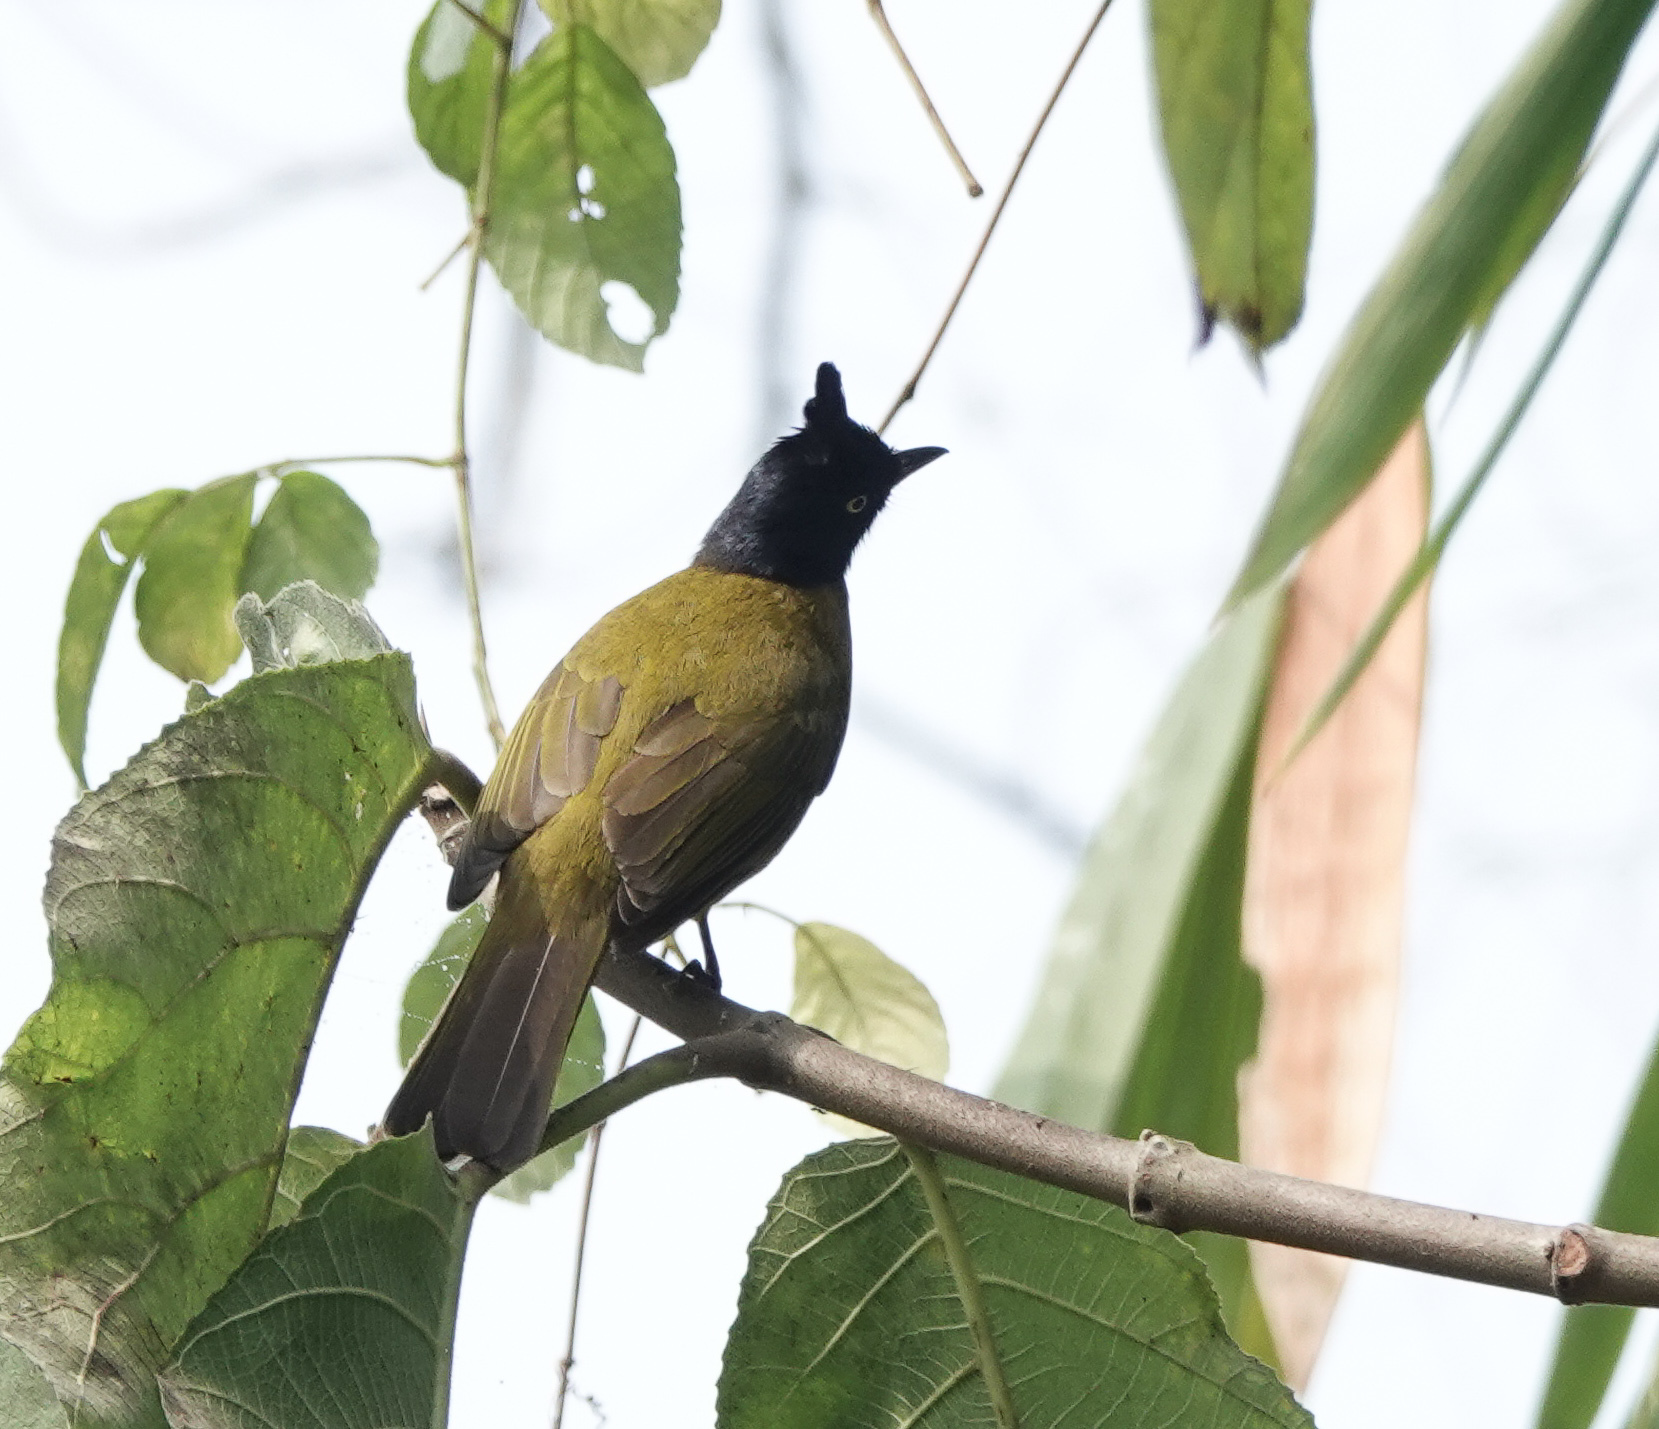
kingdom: Animalia
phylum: Chordata
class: Aves
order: Passeriformes
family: Pycnonotidae
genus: Pycnonotus
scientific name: Pycnonotus flaviventris
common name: Black-crested bulbul
